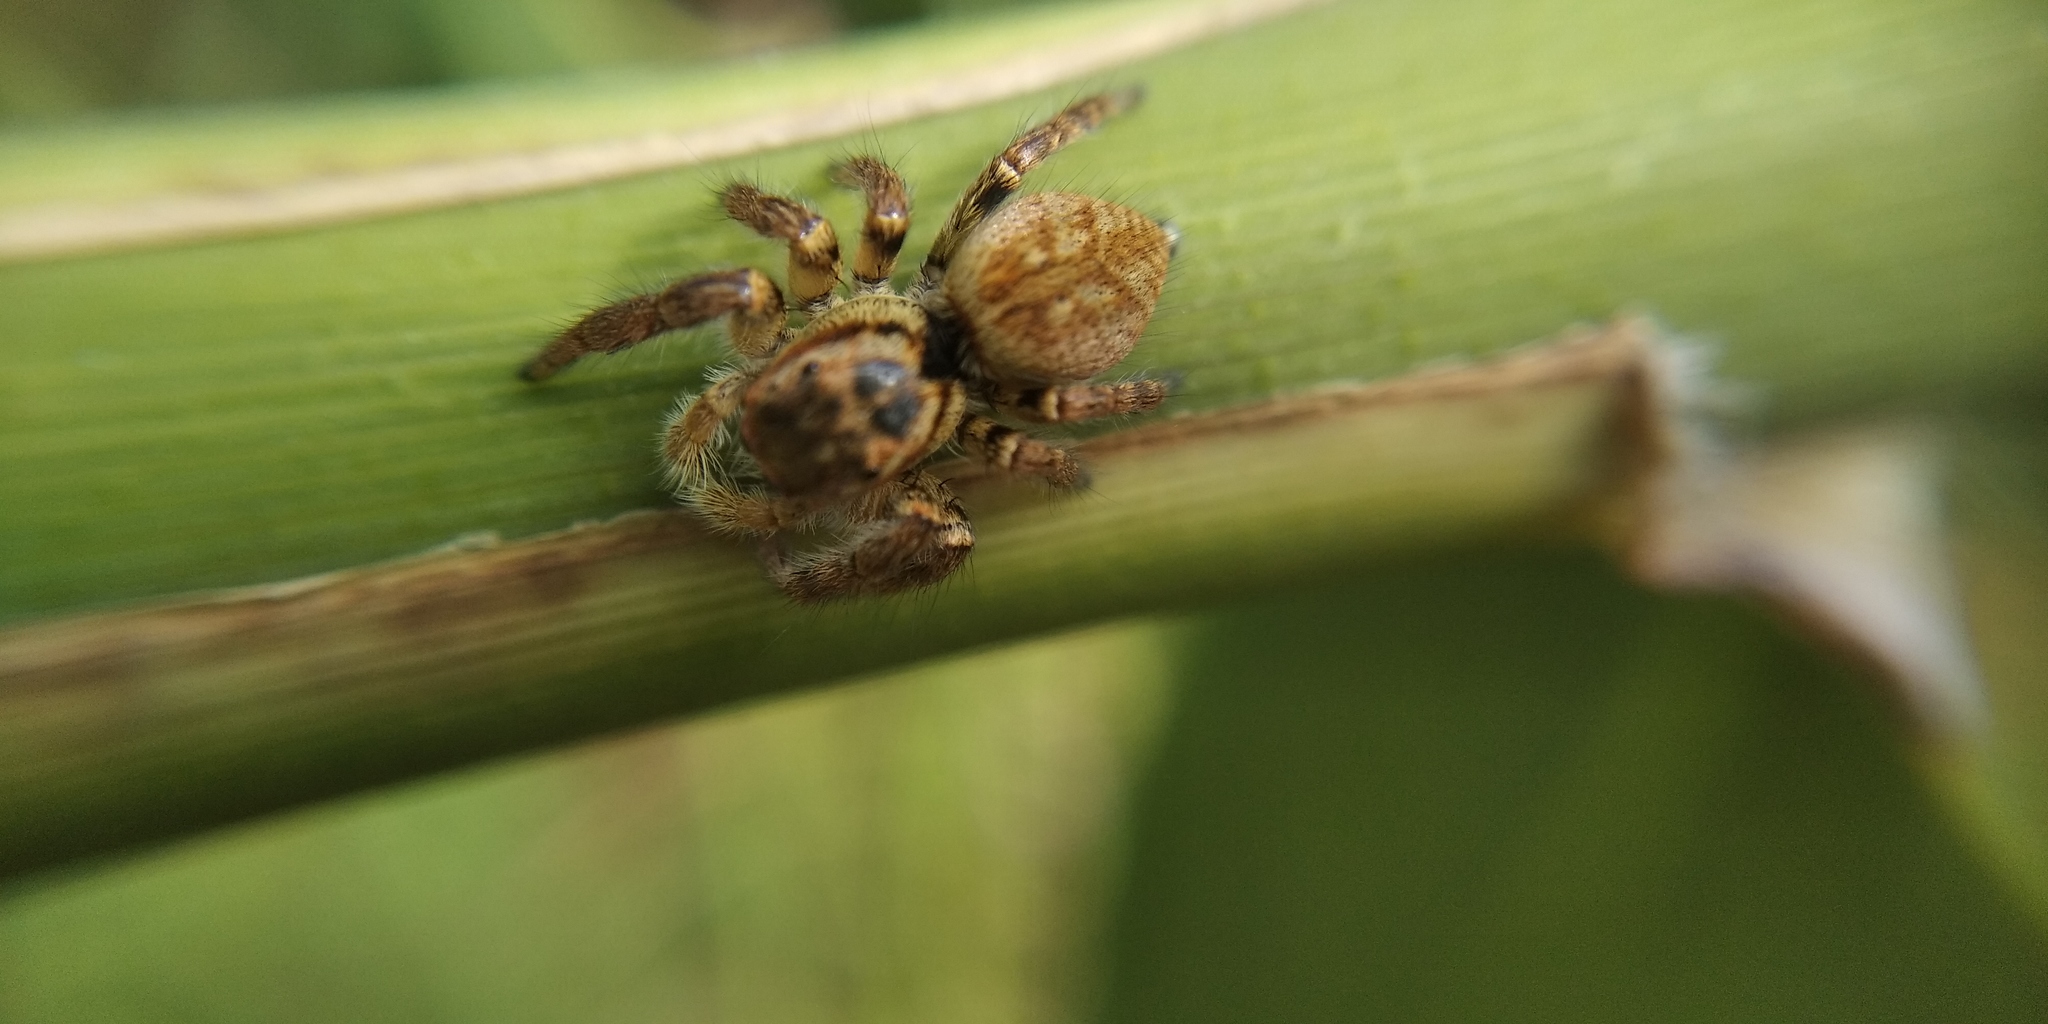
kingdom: Animalia
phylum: Arthropoda
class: Arachnida
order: Araneae
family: Salticidae
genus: Carrhotus
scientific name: Carrhotus xanthogramma
